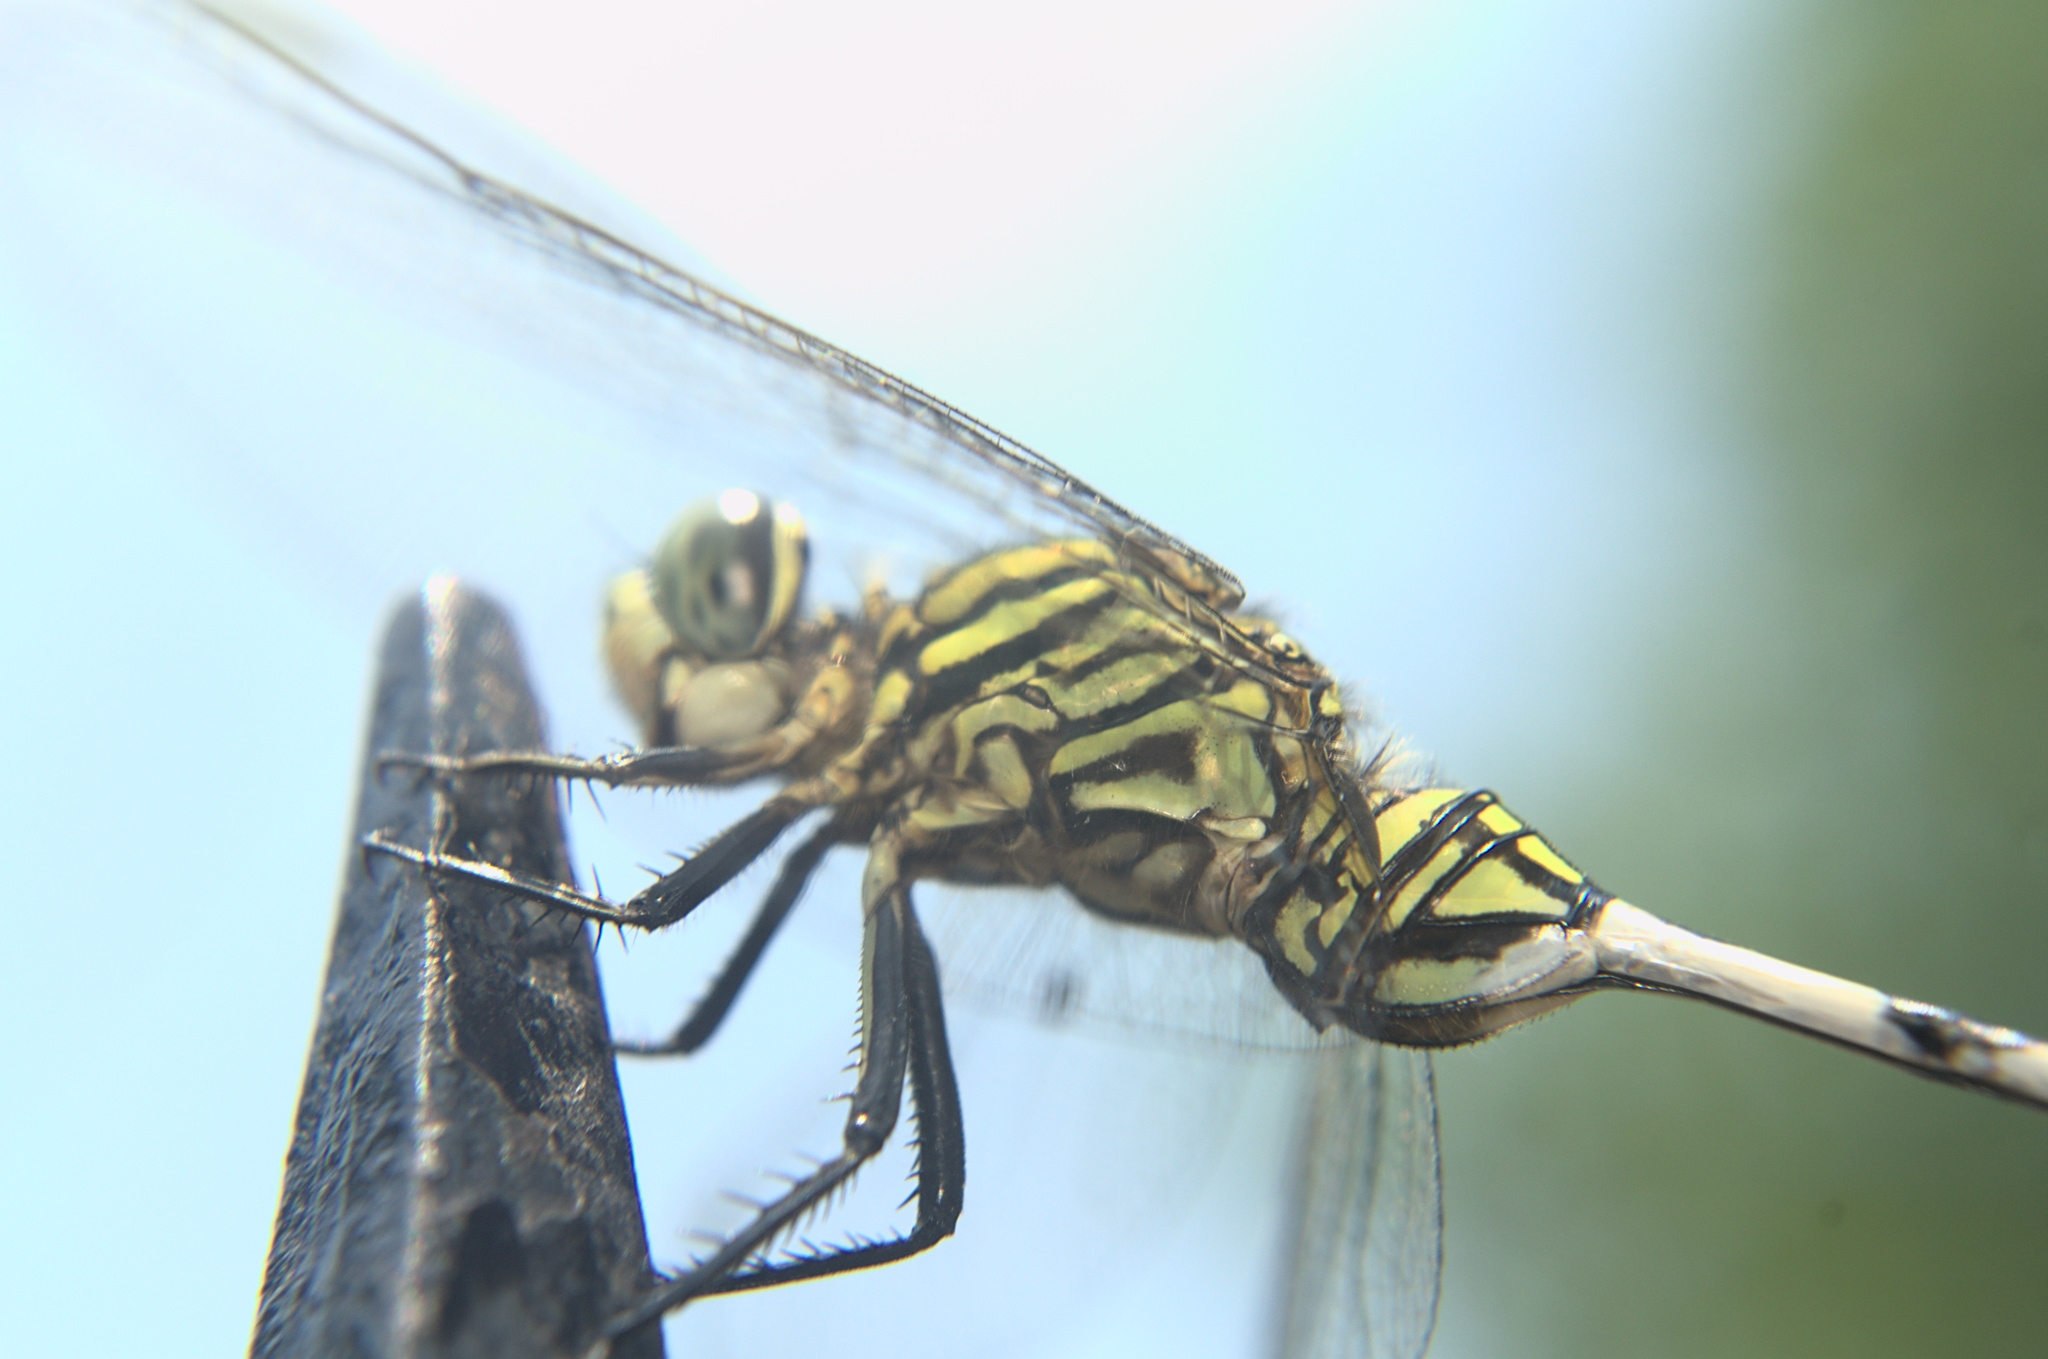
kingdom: Animalia
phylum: Arthropoda
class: Insecta
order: Odonata
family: Libellulidae
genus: Orthetrum
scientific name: Orthetrum sabina
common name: Slender skimmer
